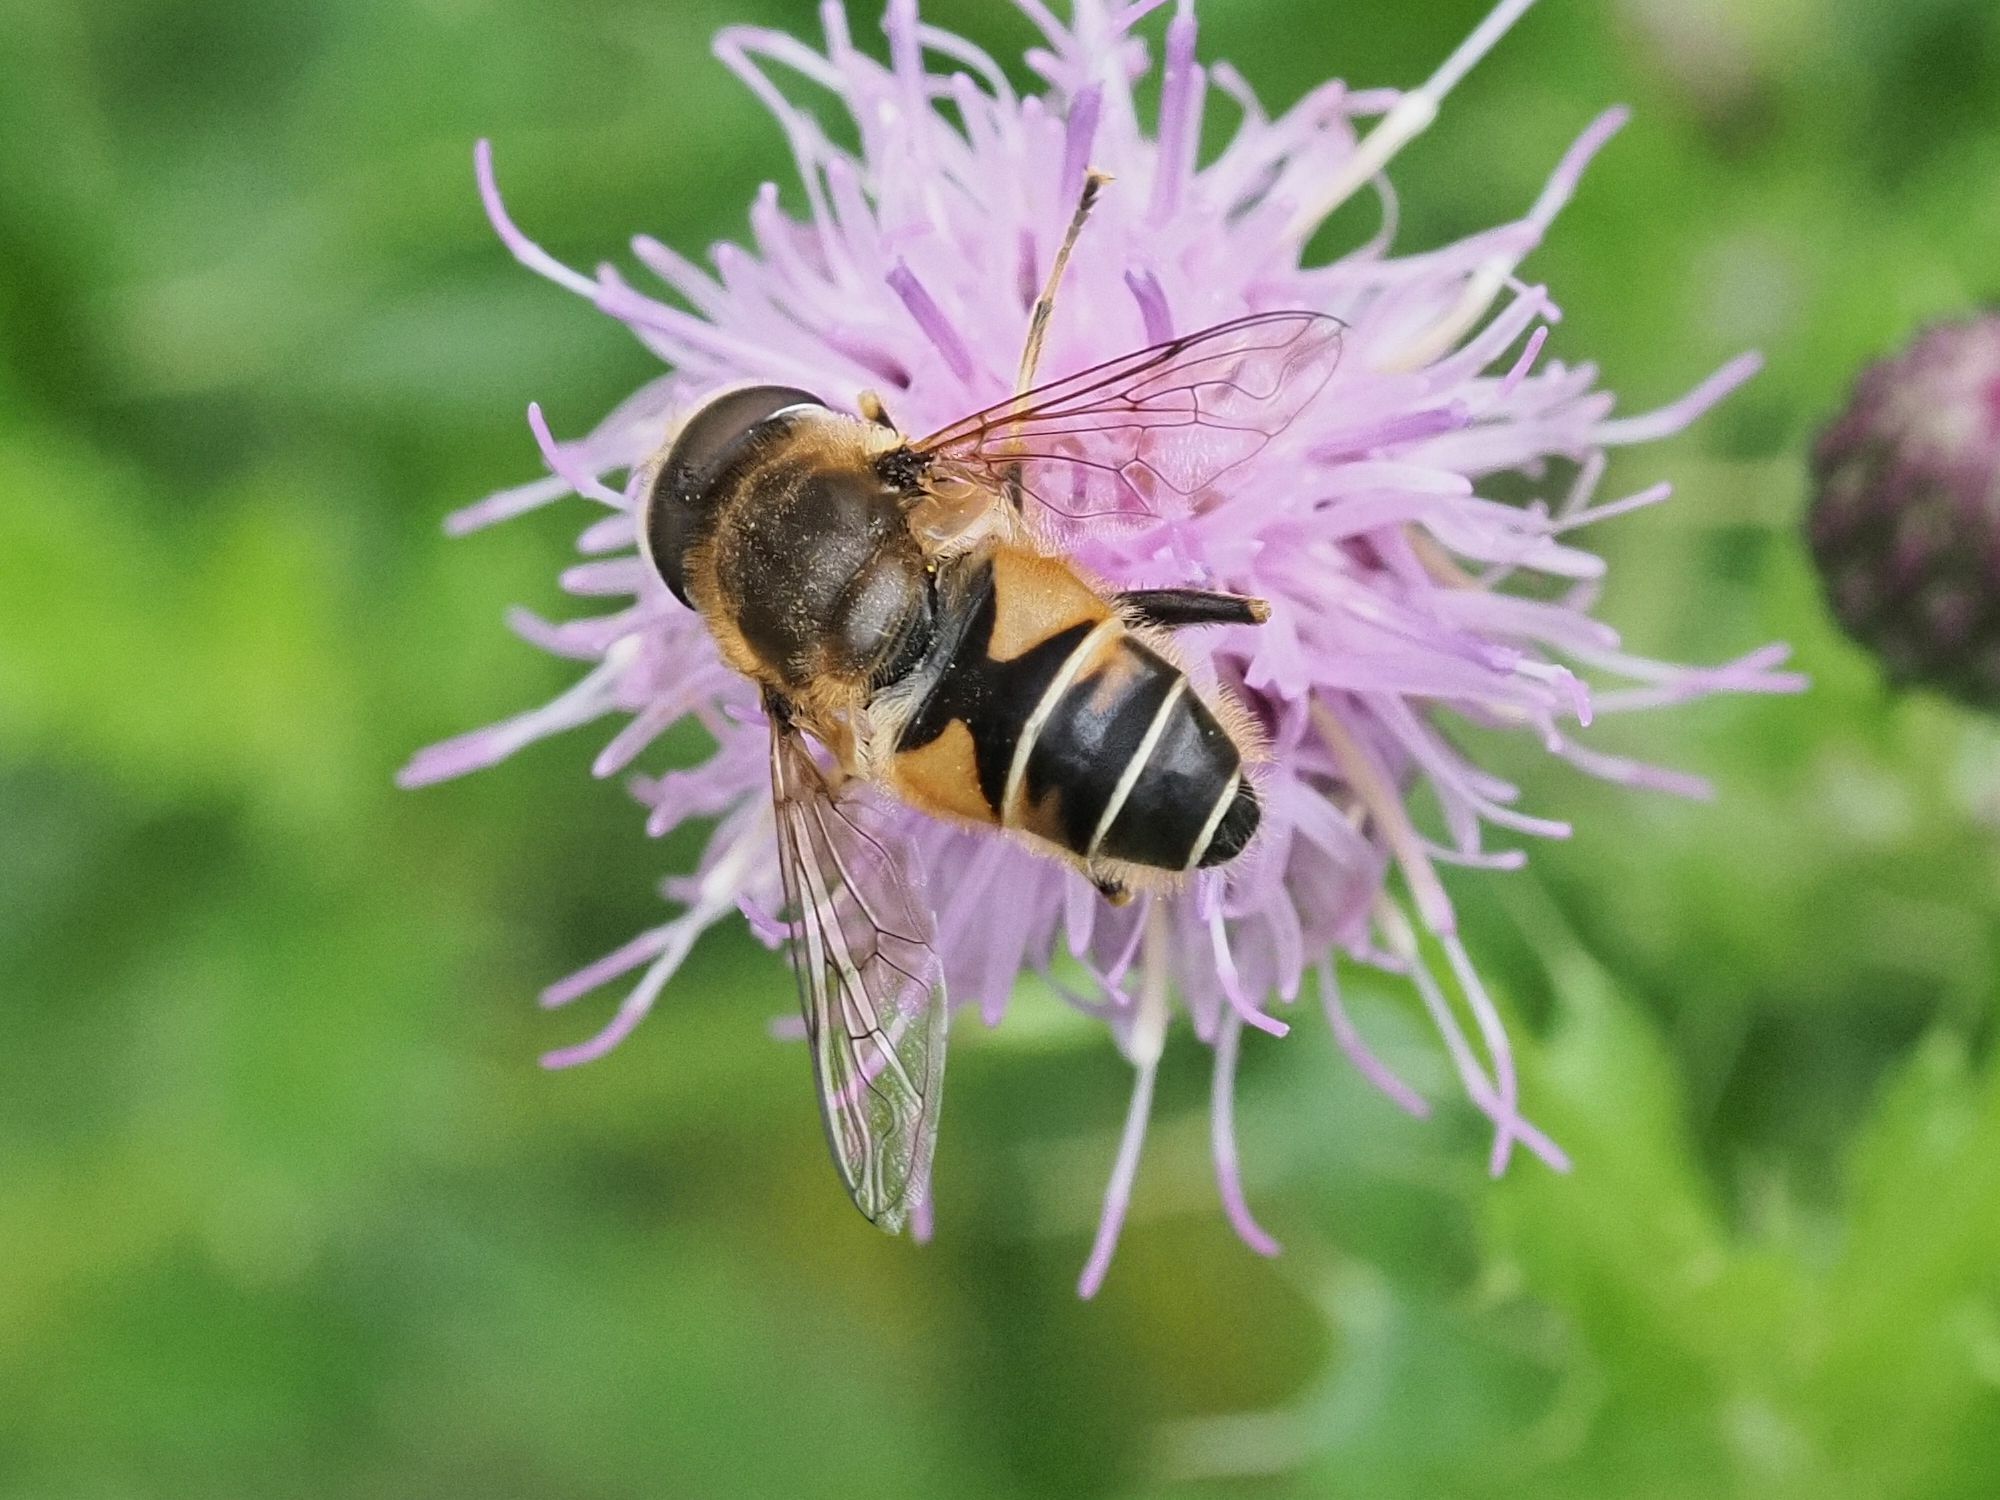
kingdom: Animalia
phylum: Arthropoda
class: Insecta
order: Diptera
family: Syrphidae
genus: Eristalis
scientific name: Eristalis nemorum
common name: Orange-spined drone fly
